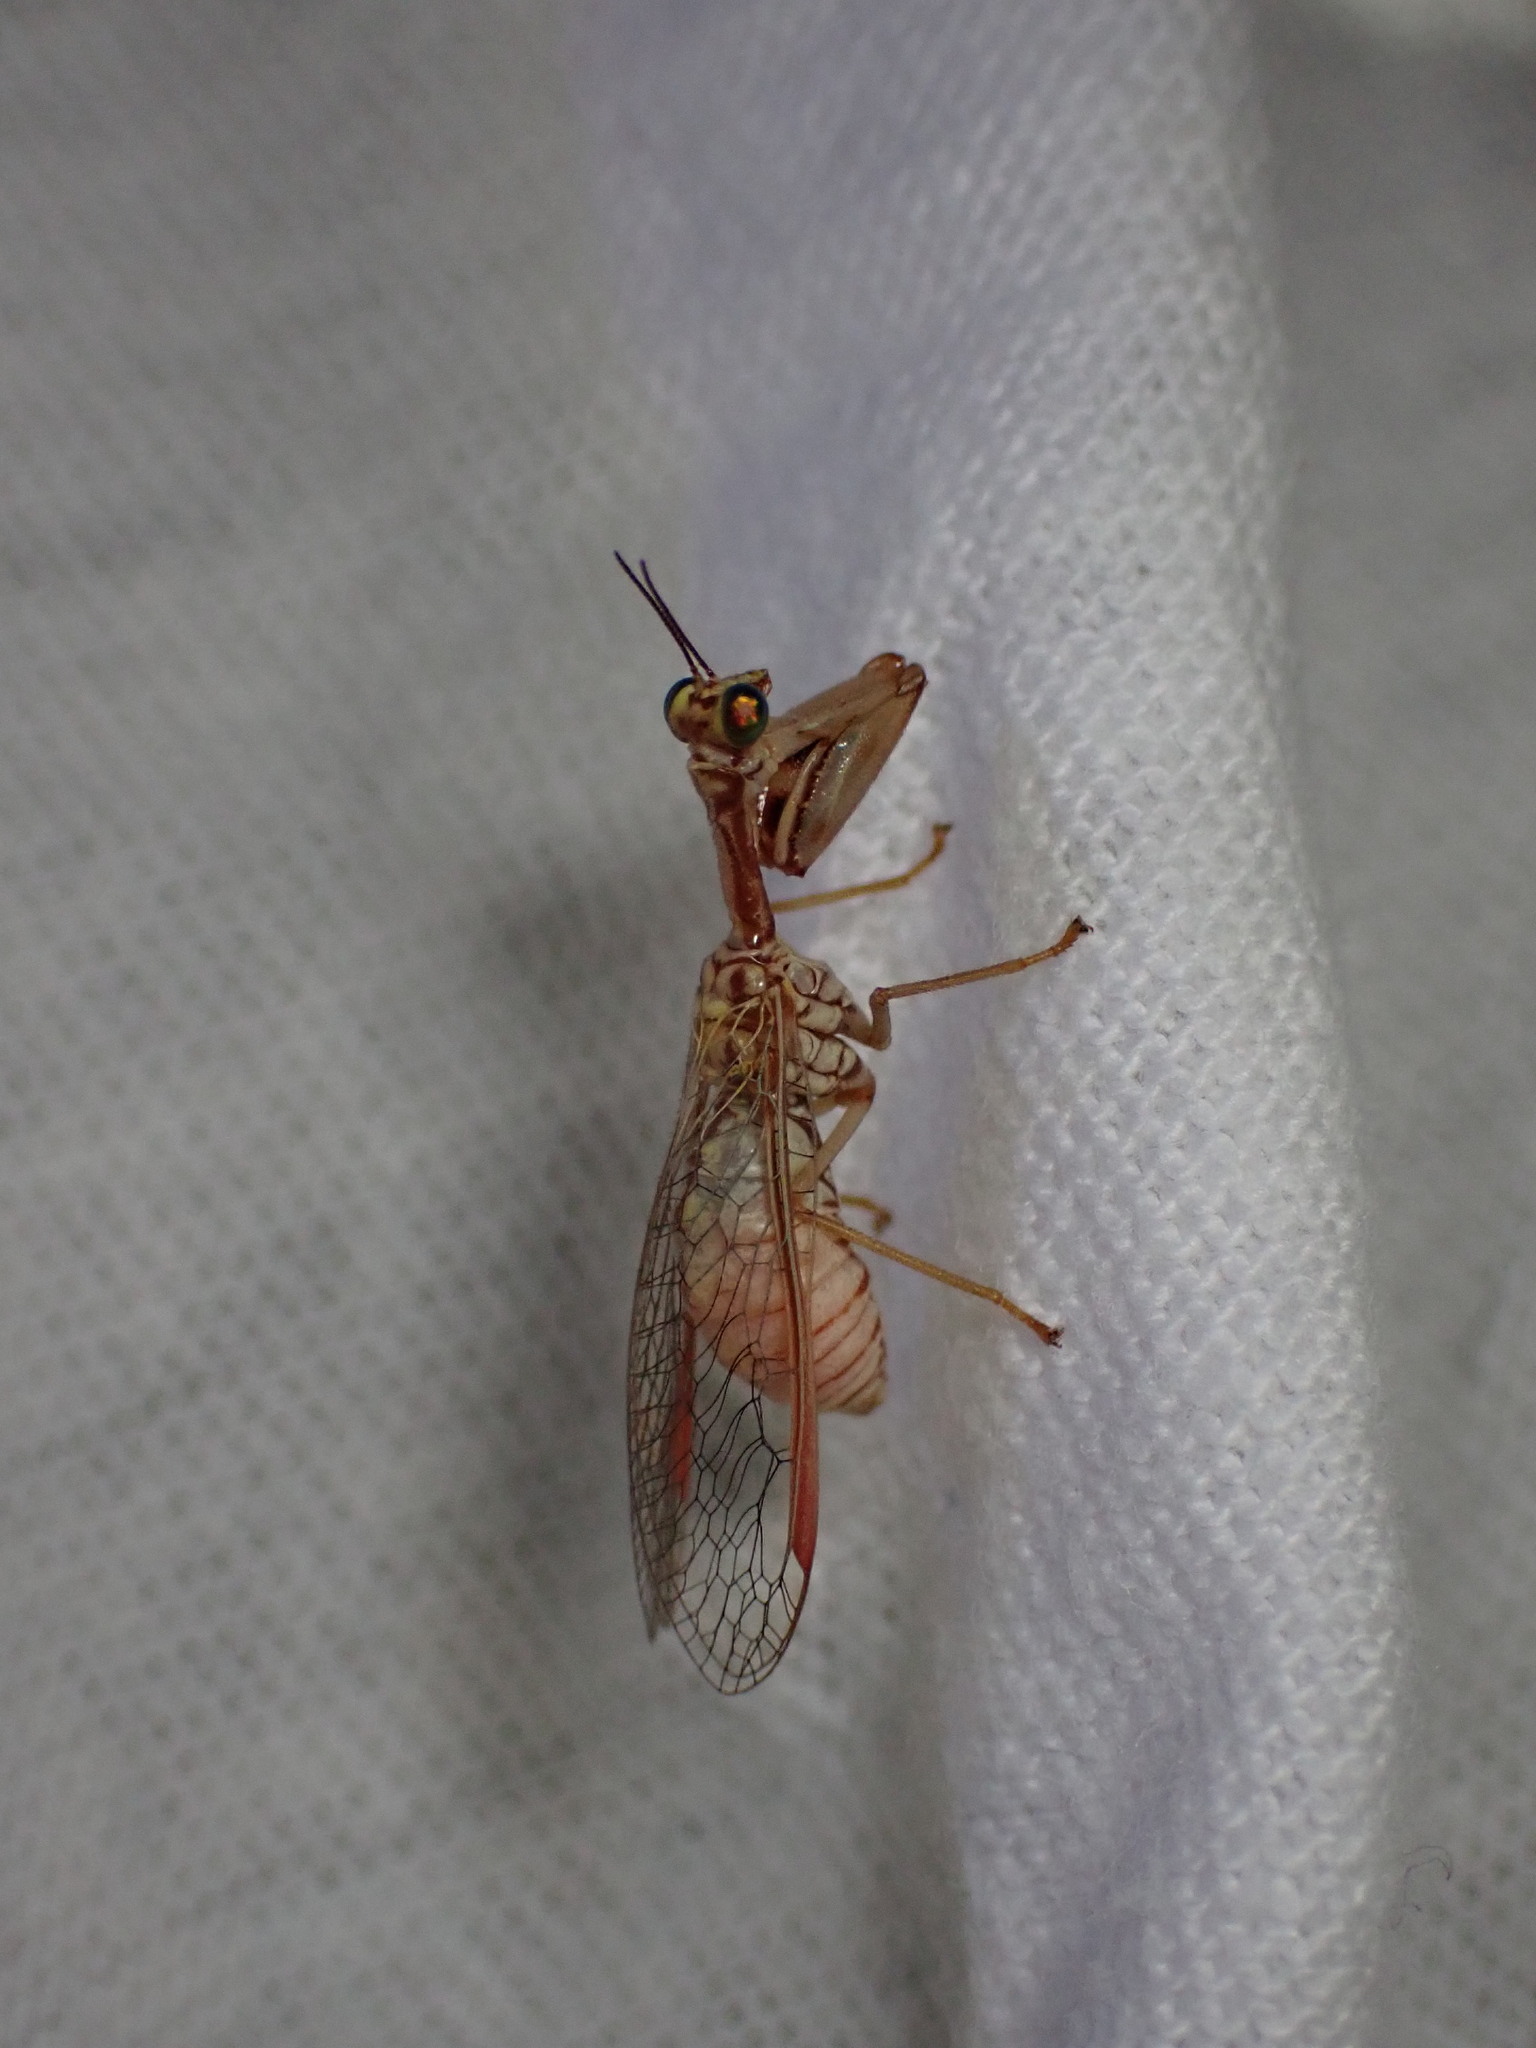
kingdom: Animalia
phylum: Arthropoda
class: Insecta
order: Neuroptera
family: Mantispidae
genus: Mantispa
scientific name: Mantispa aphavexelte
